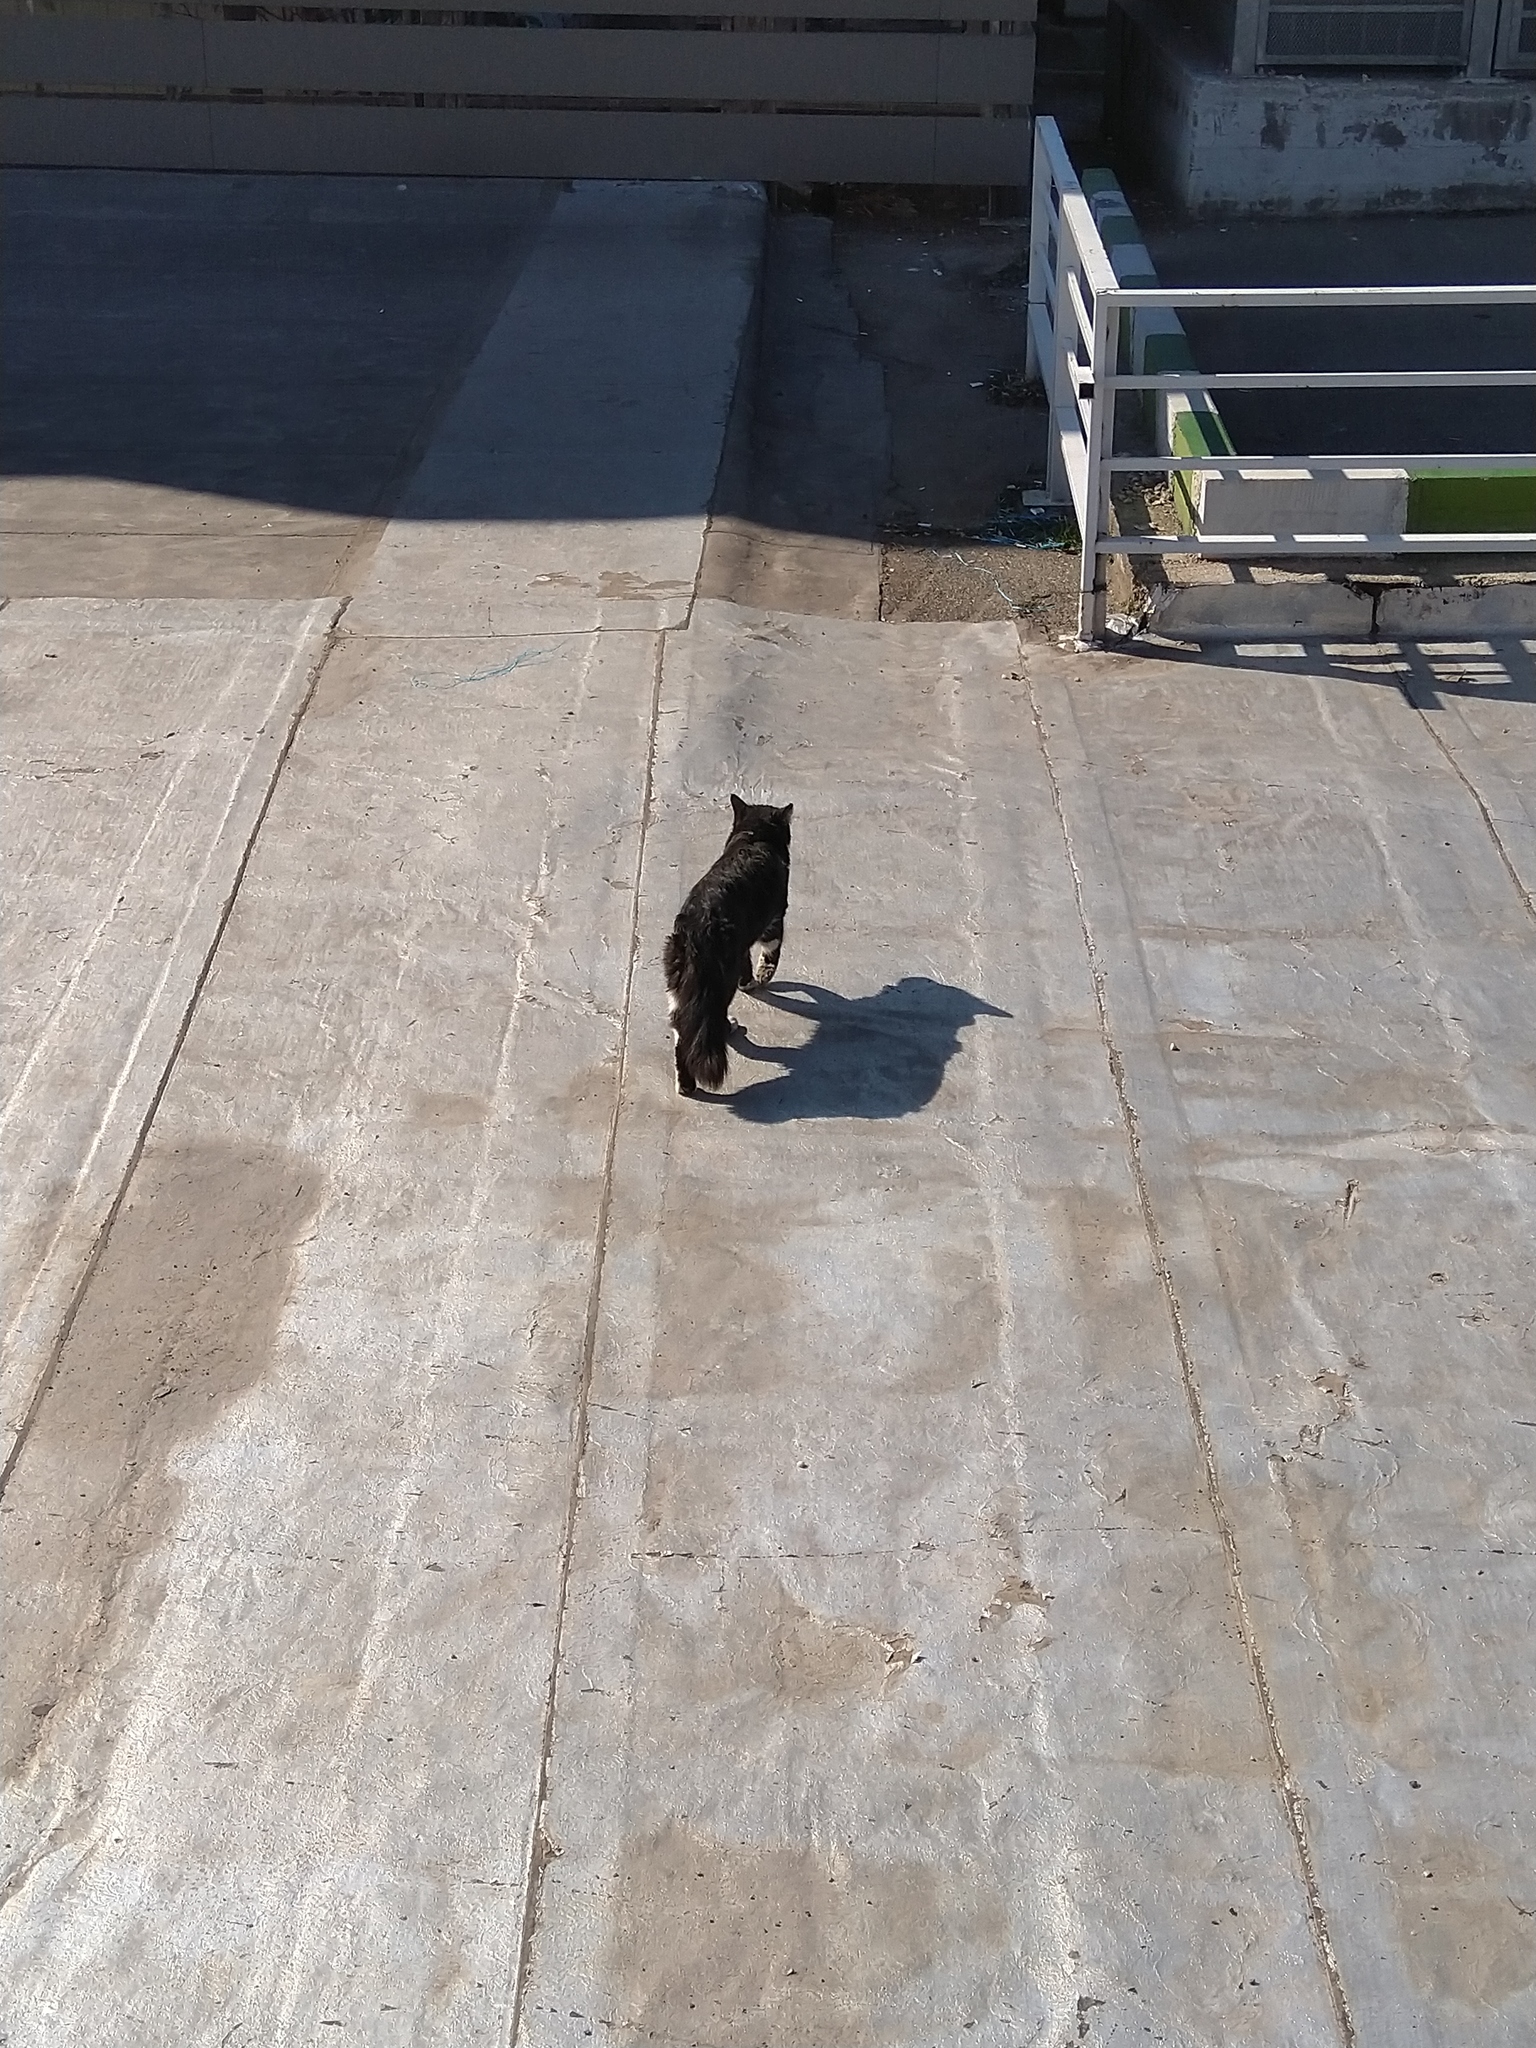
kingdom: Animalia
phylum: Chordata
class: Mammalia
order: Carnivora
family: Felidae
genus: Felis
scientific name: Felis catus
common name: Domestic cat
